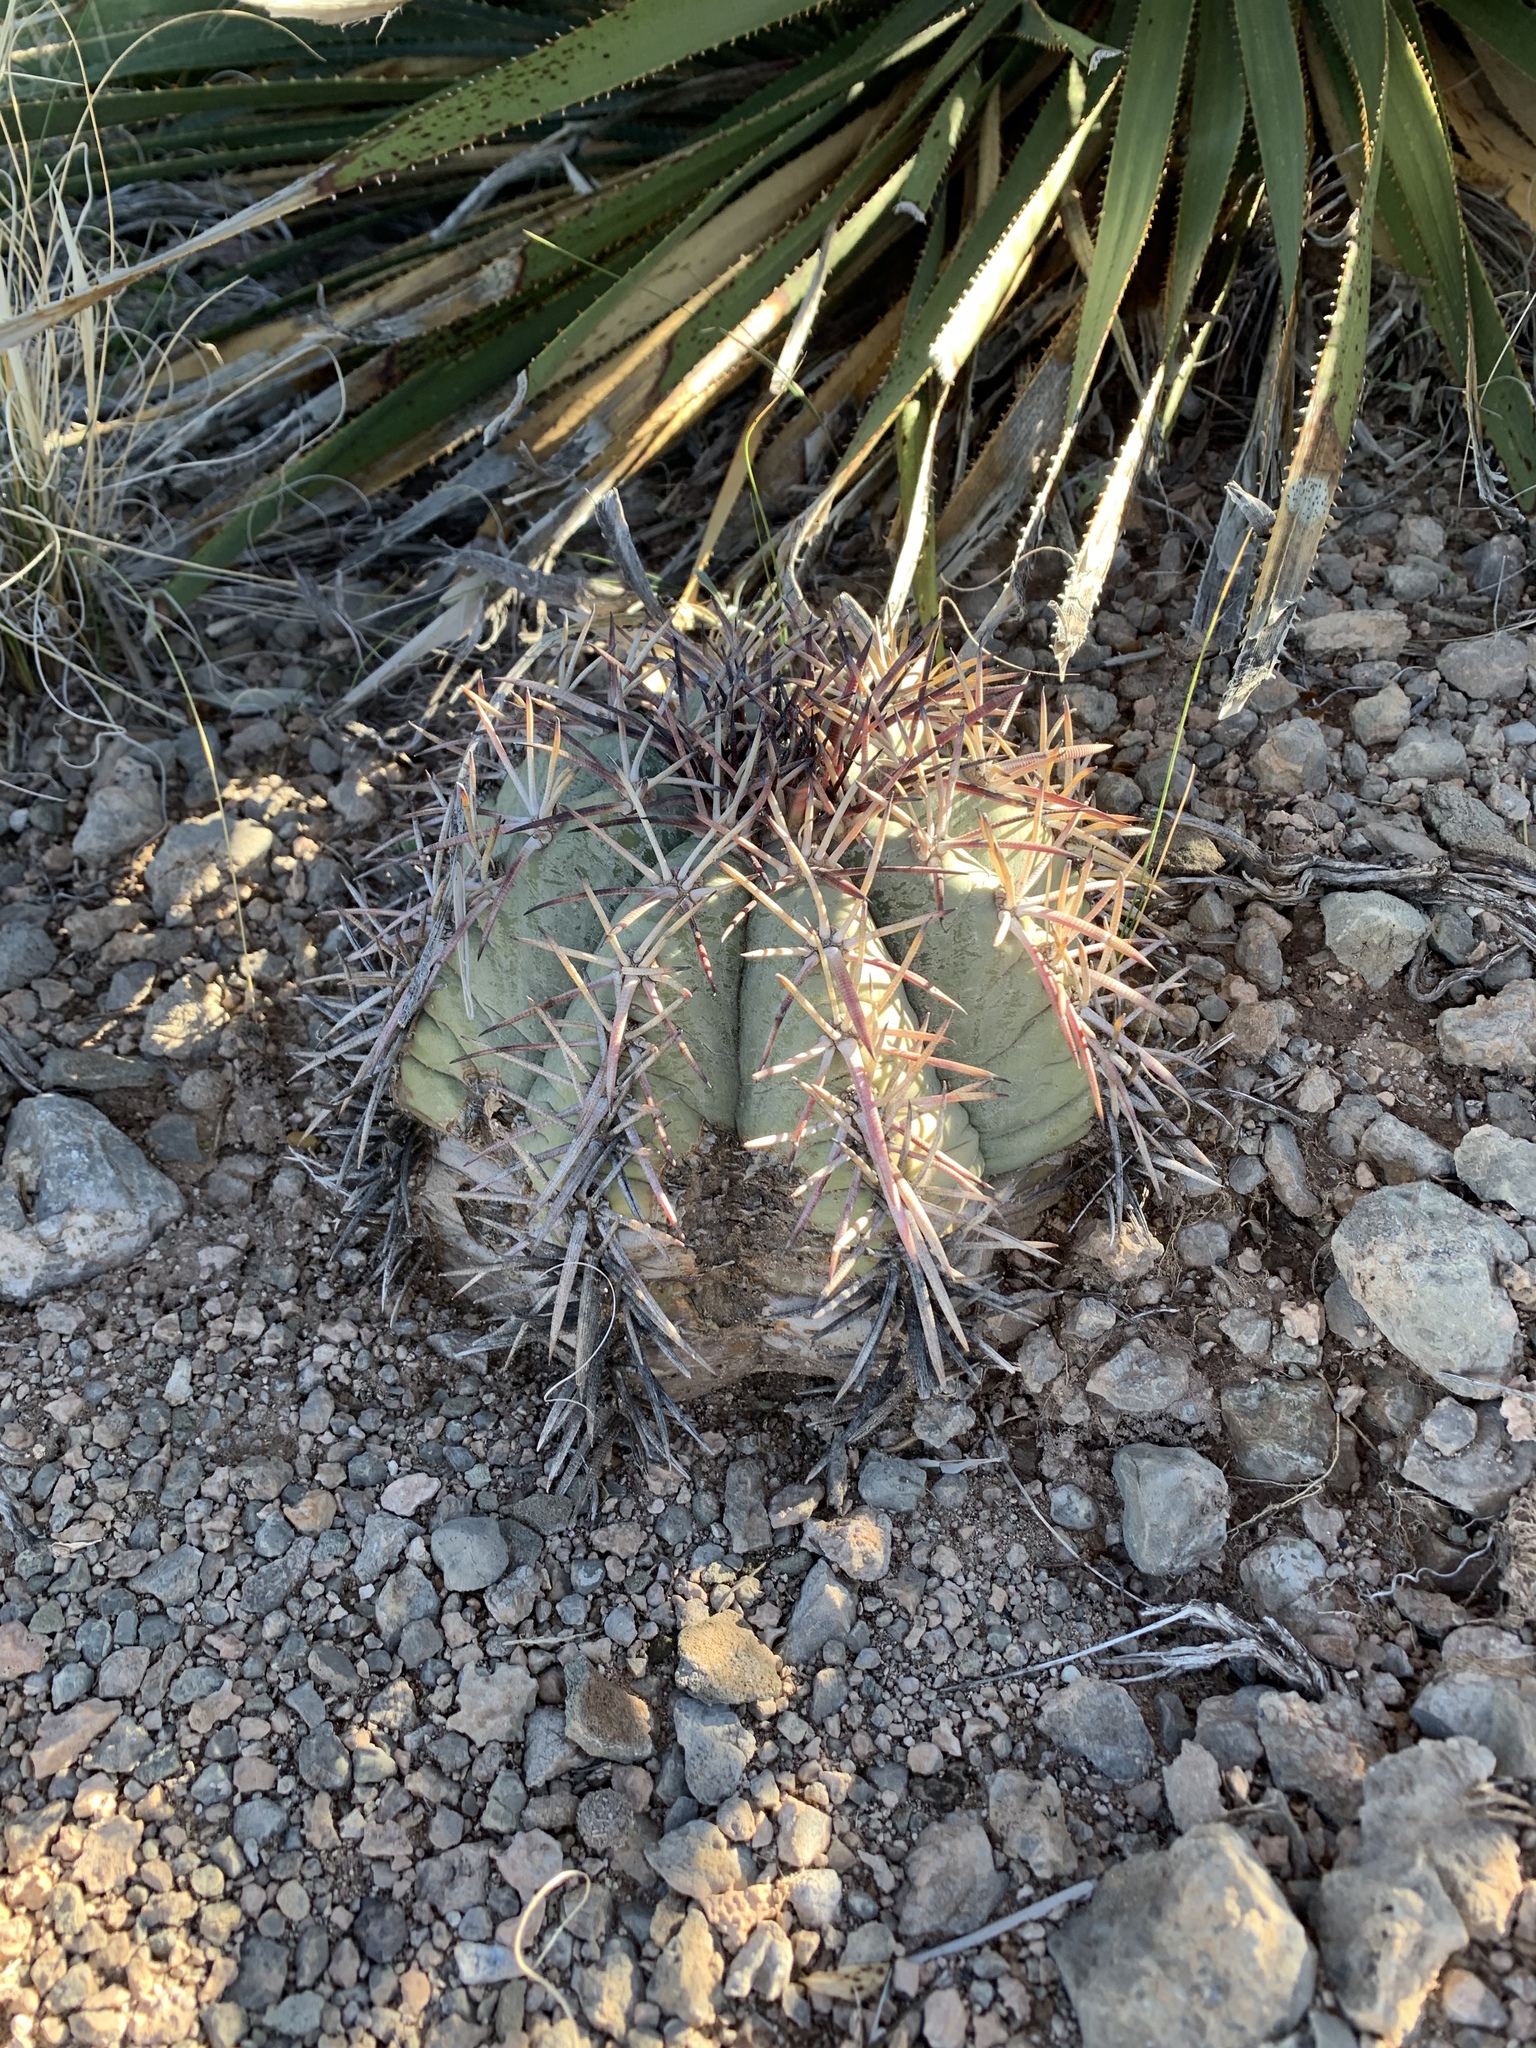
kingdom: Plantae
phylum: Tracheophyta
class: Magnoliopsida
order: Caryophyllales
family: Cactaceae
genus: Echinocactus
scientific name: Echinocactus horizonthalonius
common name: Devilshead
